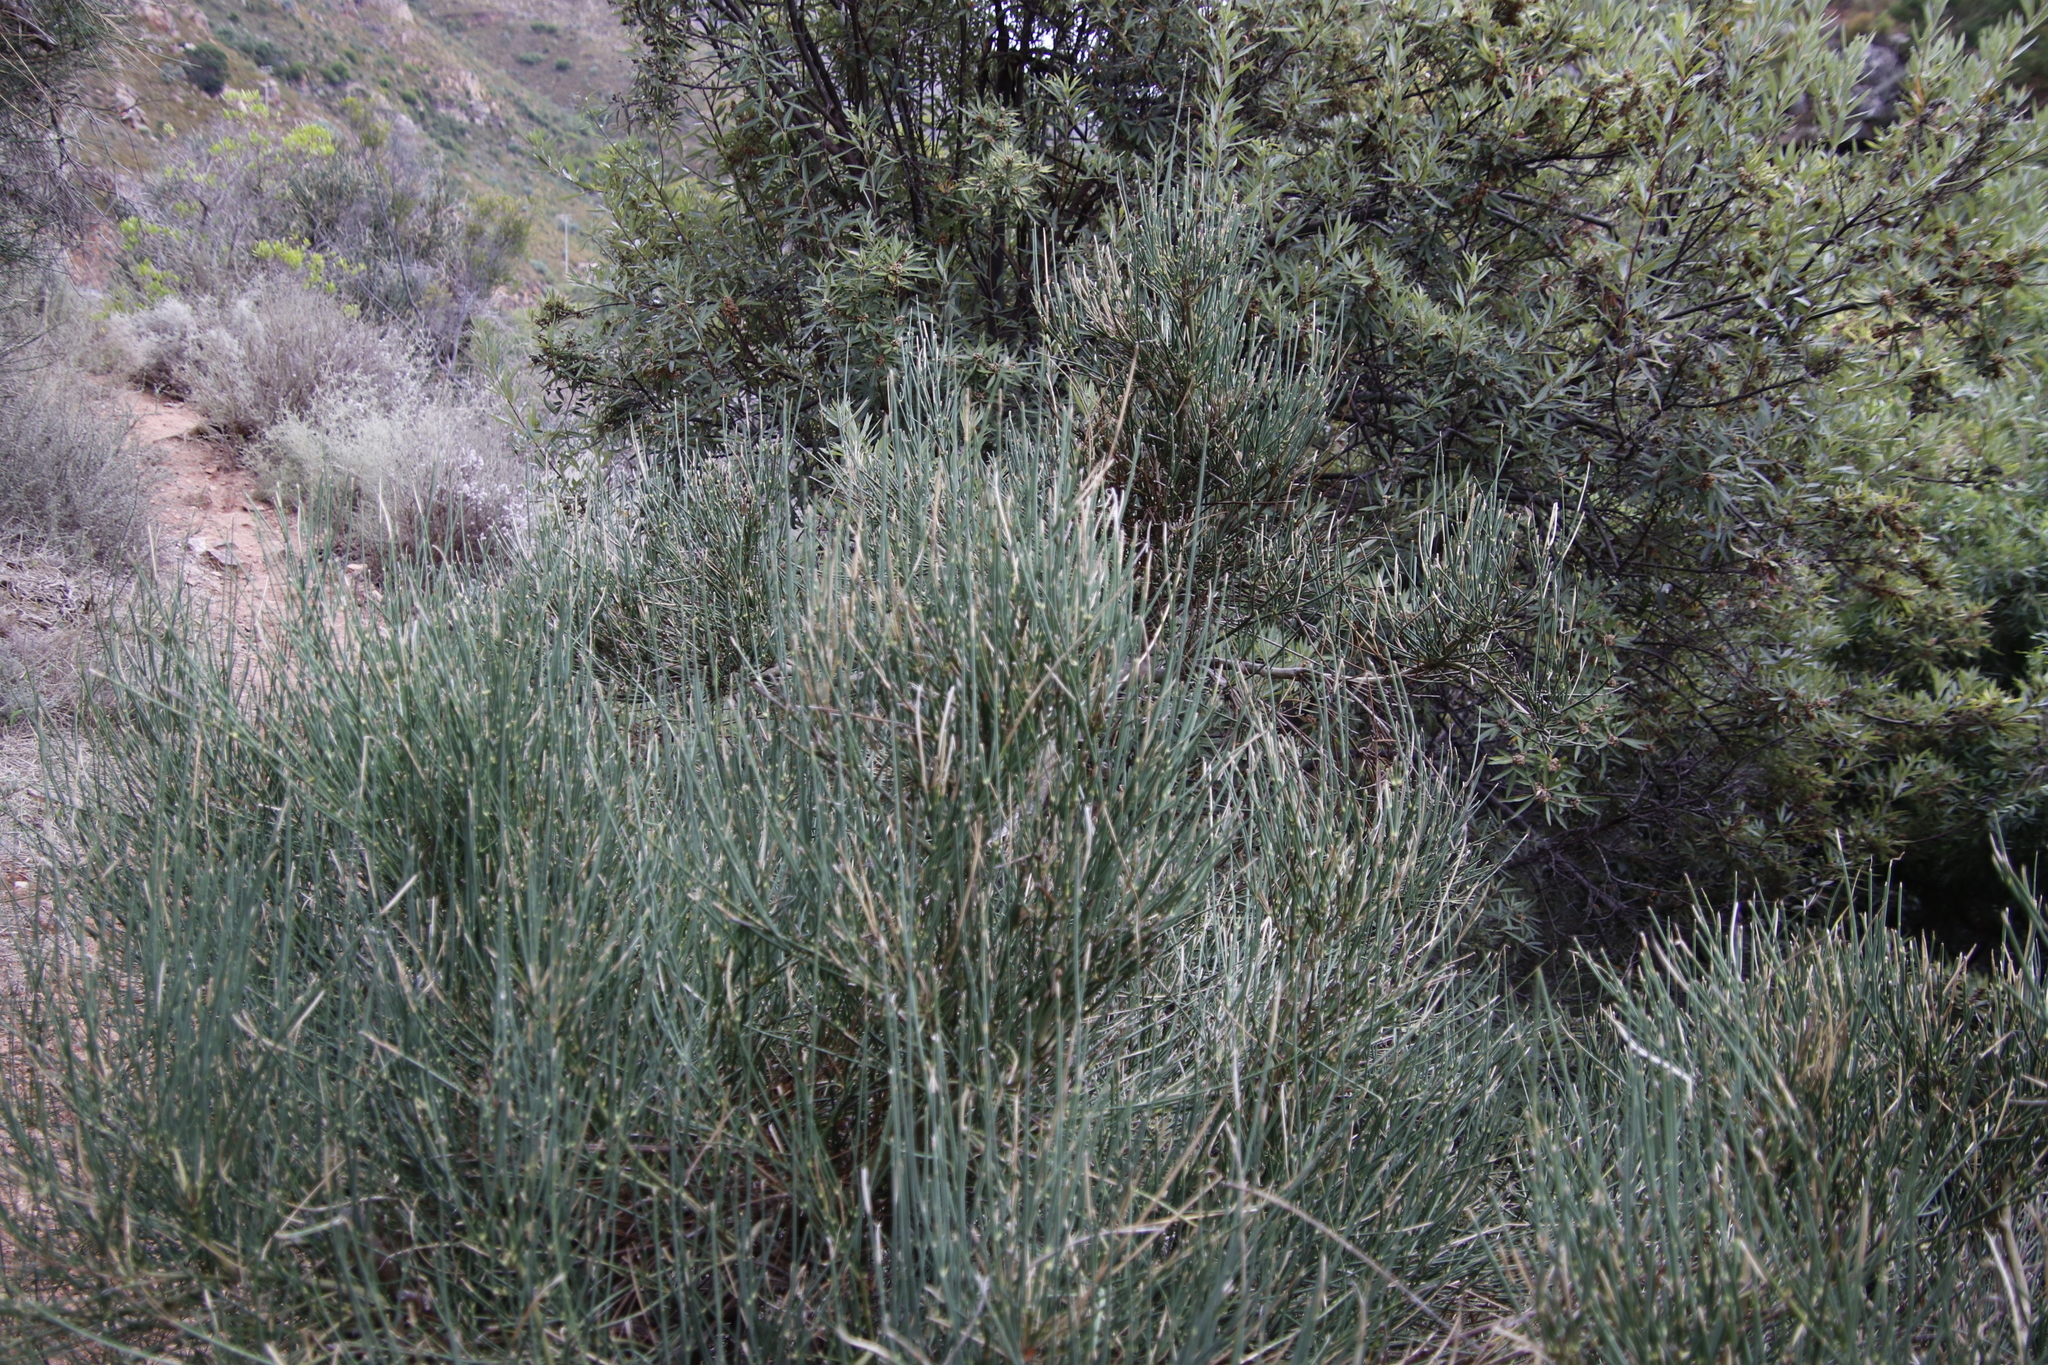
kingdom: Plantae
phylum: Tracheophyta
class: Magnoliopsida
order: Fabales
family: Fabaceae
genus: Spartium
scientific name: Spartium junceum
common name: Spanish broom
